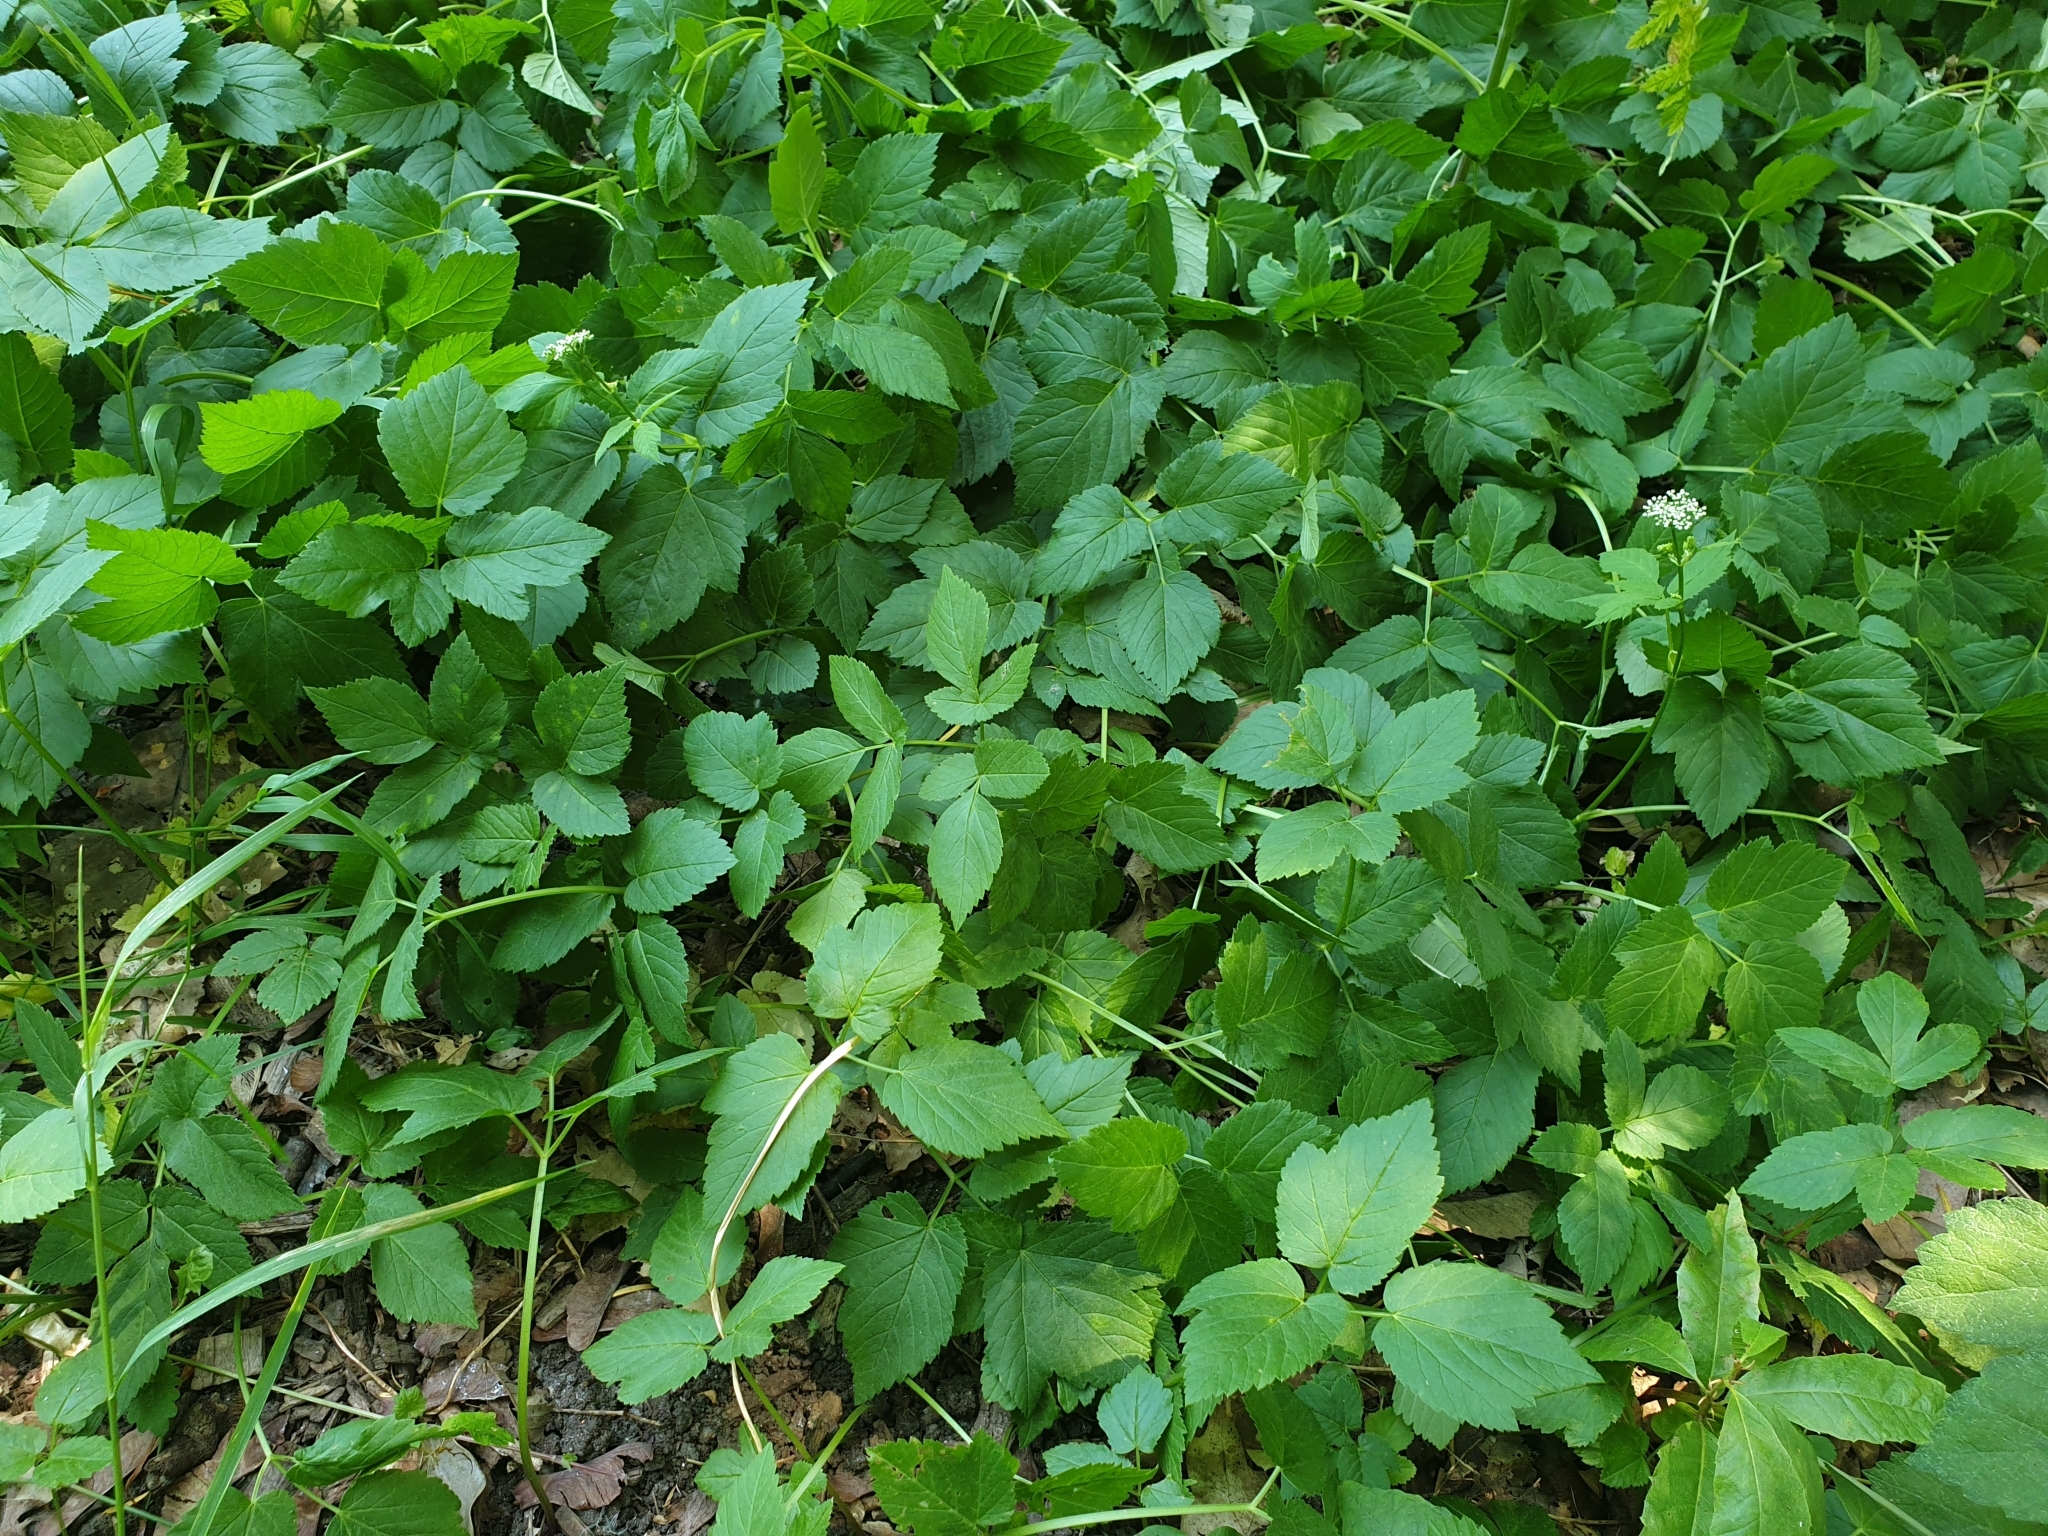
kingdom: Plantae
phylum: Tracheophyta
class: Magnoliopsida
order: Apiales
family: Apiaceae
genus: Aegopodium
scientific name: Aegopodium podagraria
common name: Ground-elder
